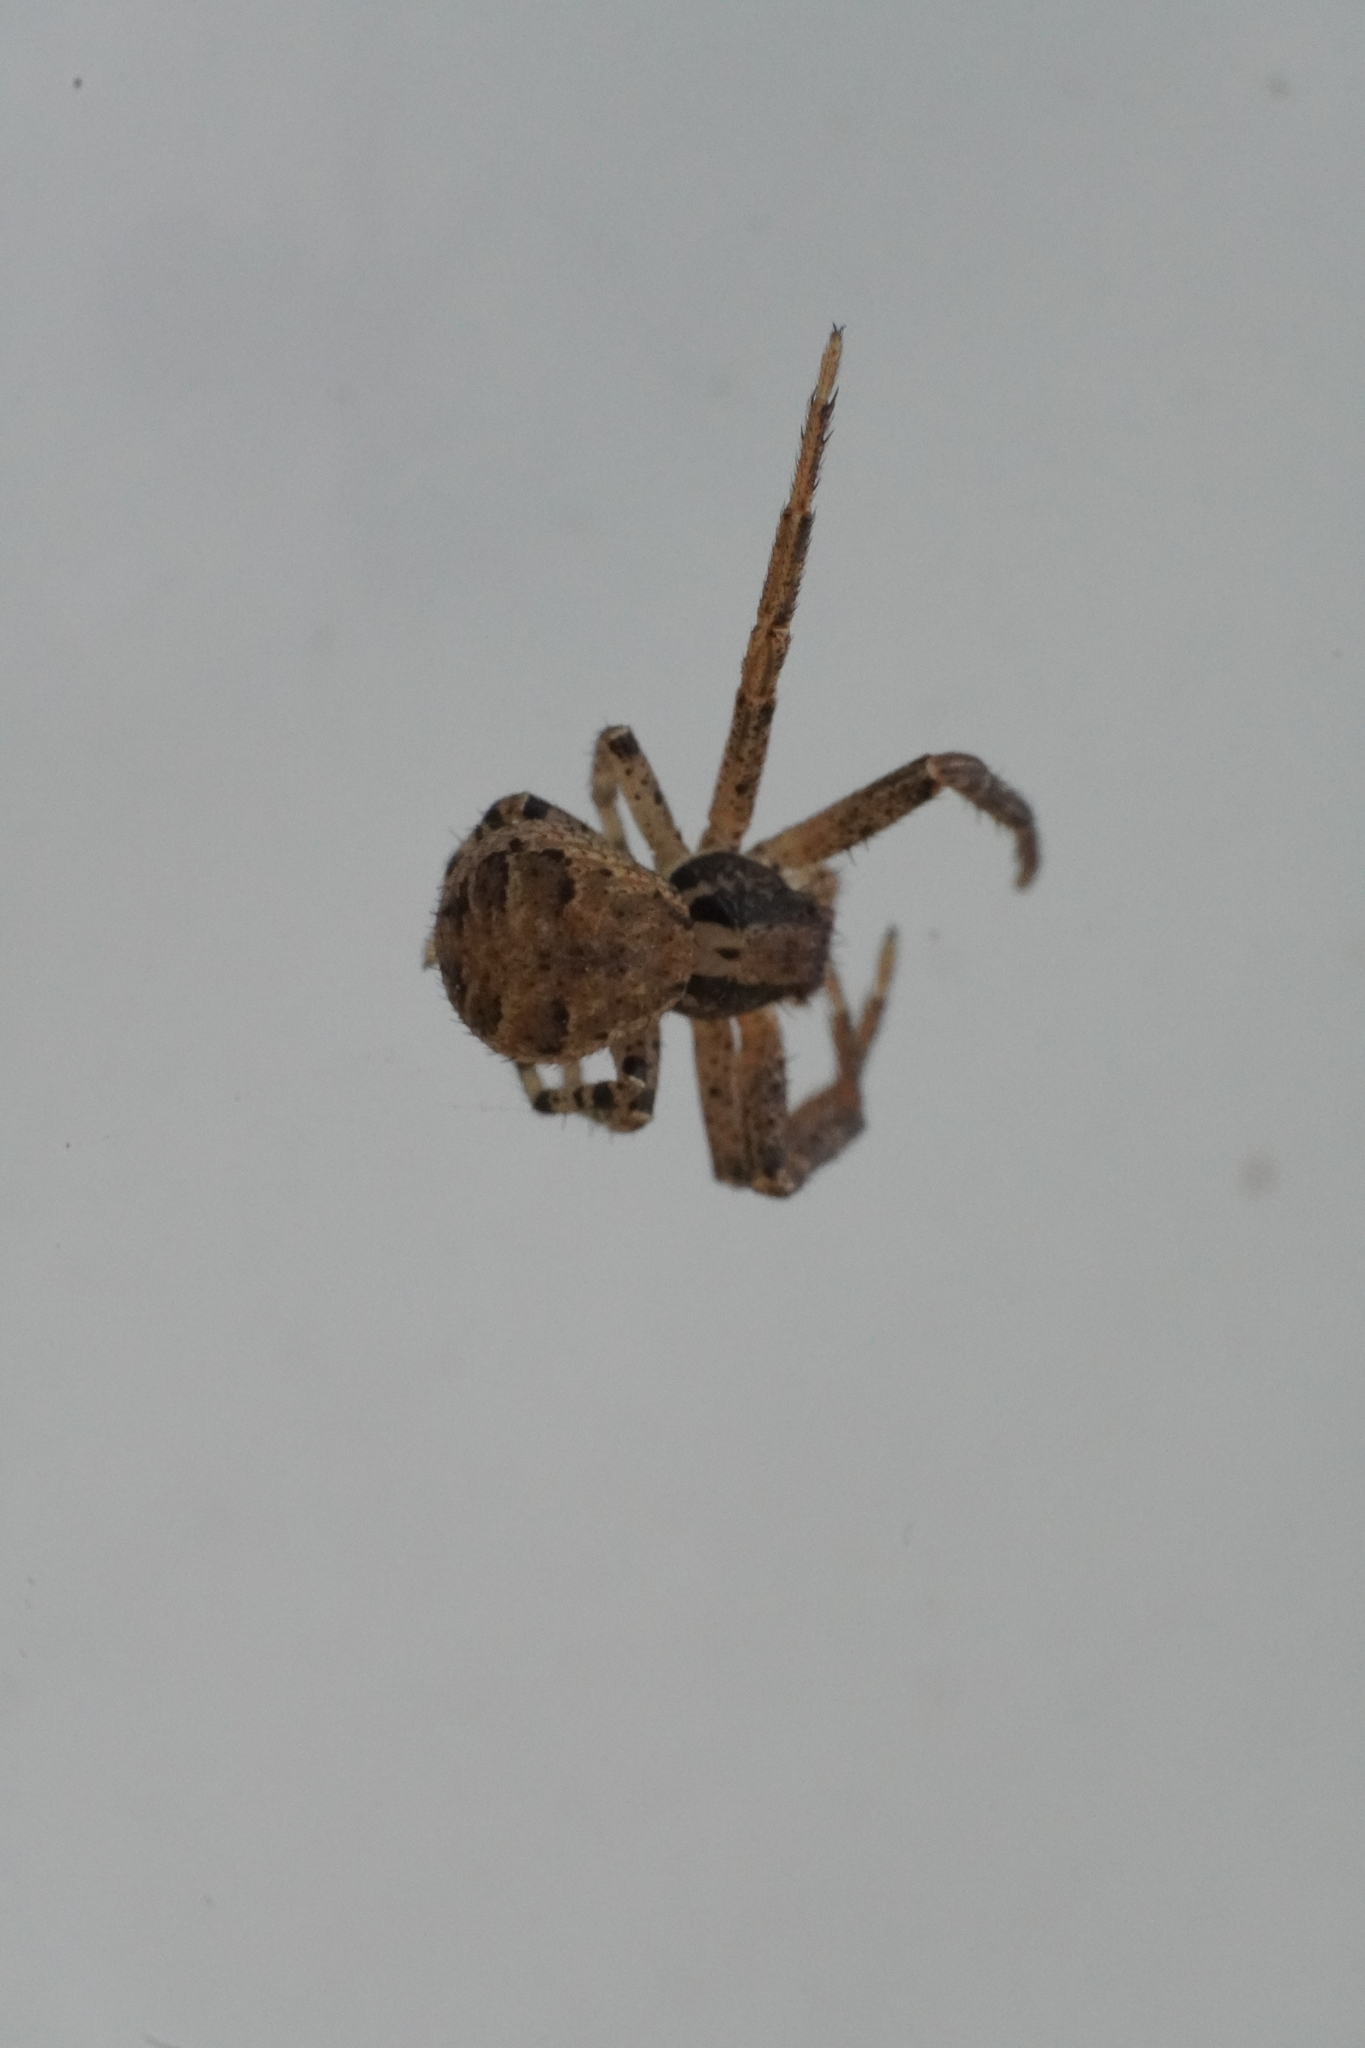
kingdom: Animalia
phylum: Arthropoda
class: Arachnida
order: Araneae
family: Thomisidae
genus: Xysticus
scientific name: Xysticus ferox
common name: Tan crab spider
